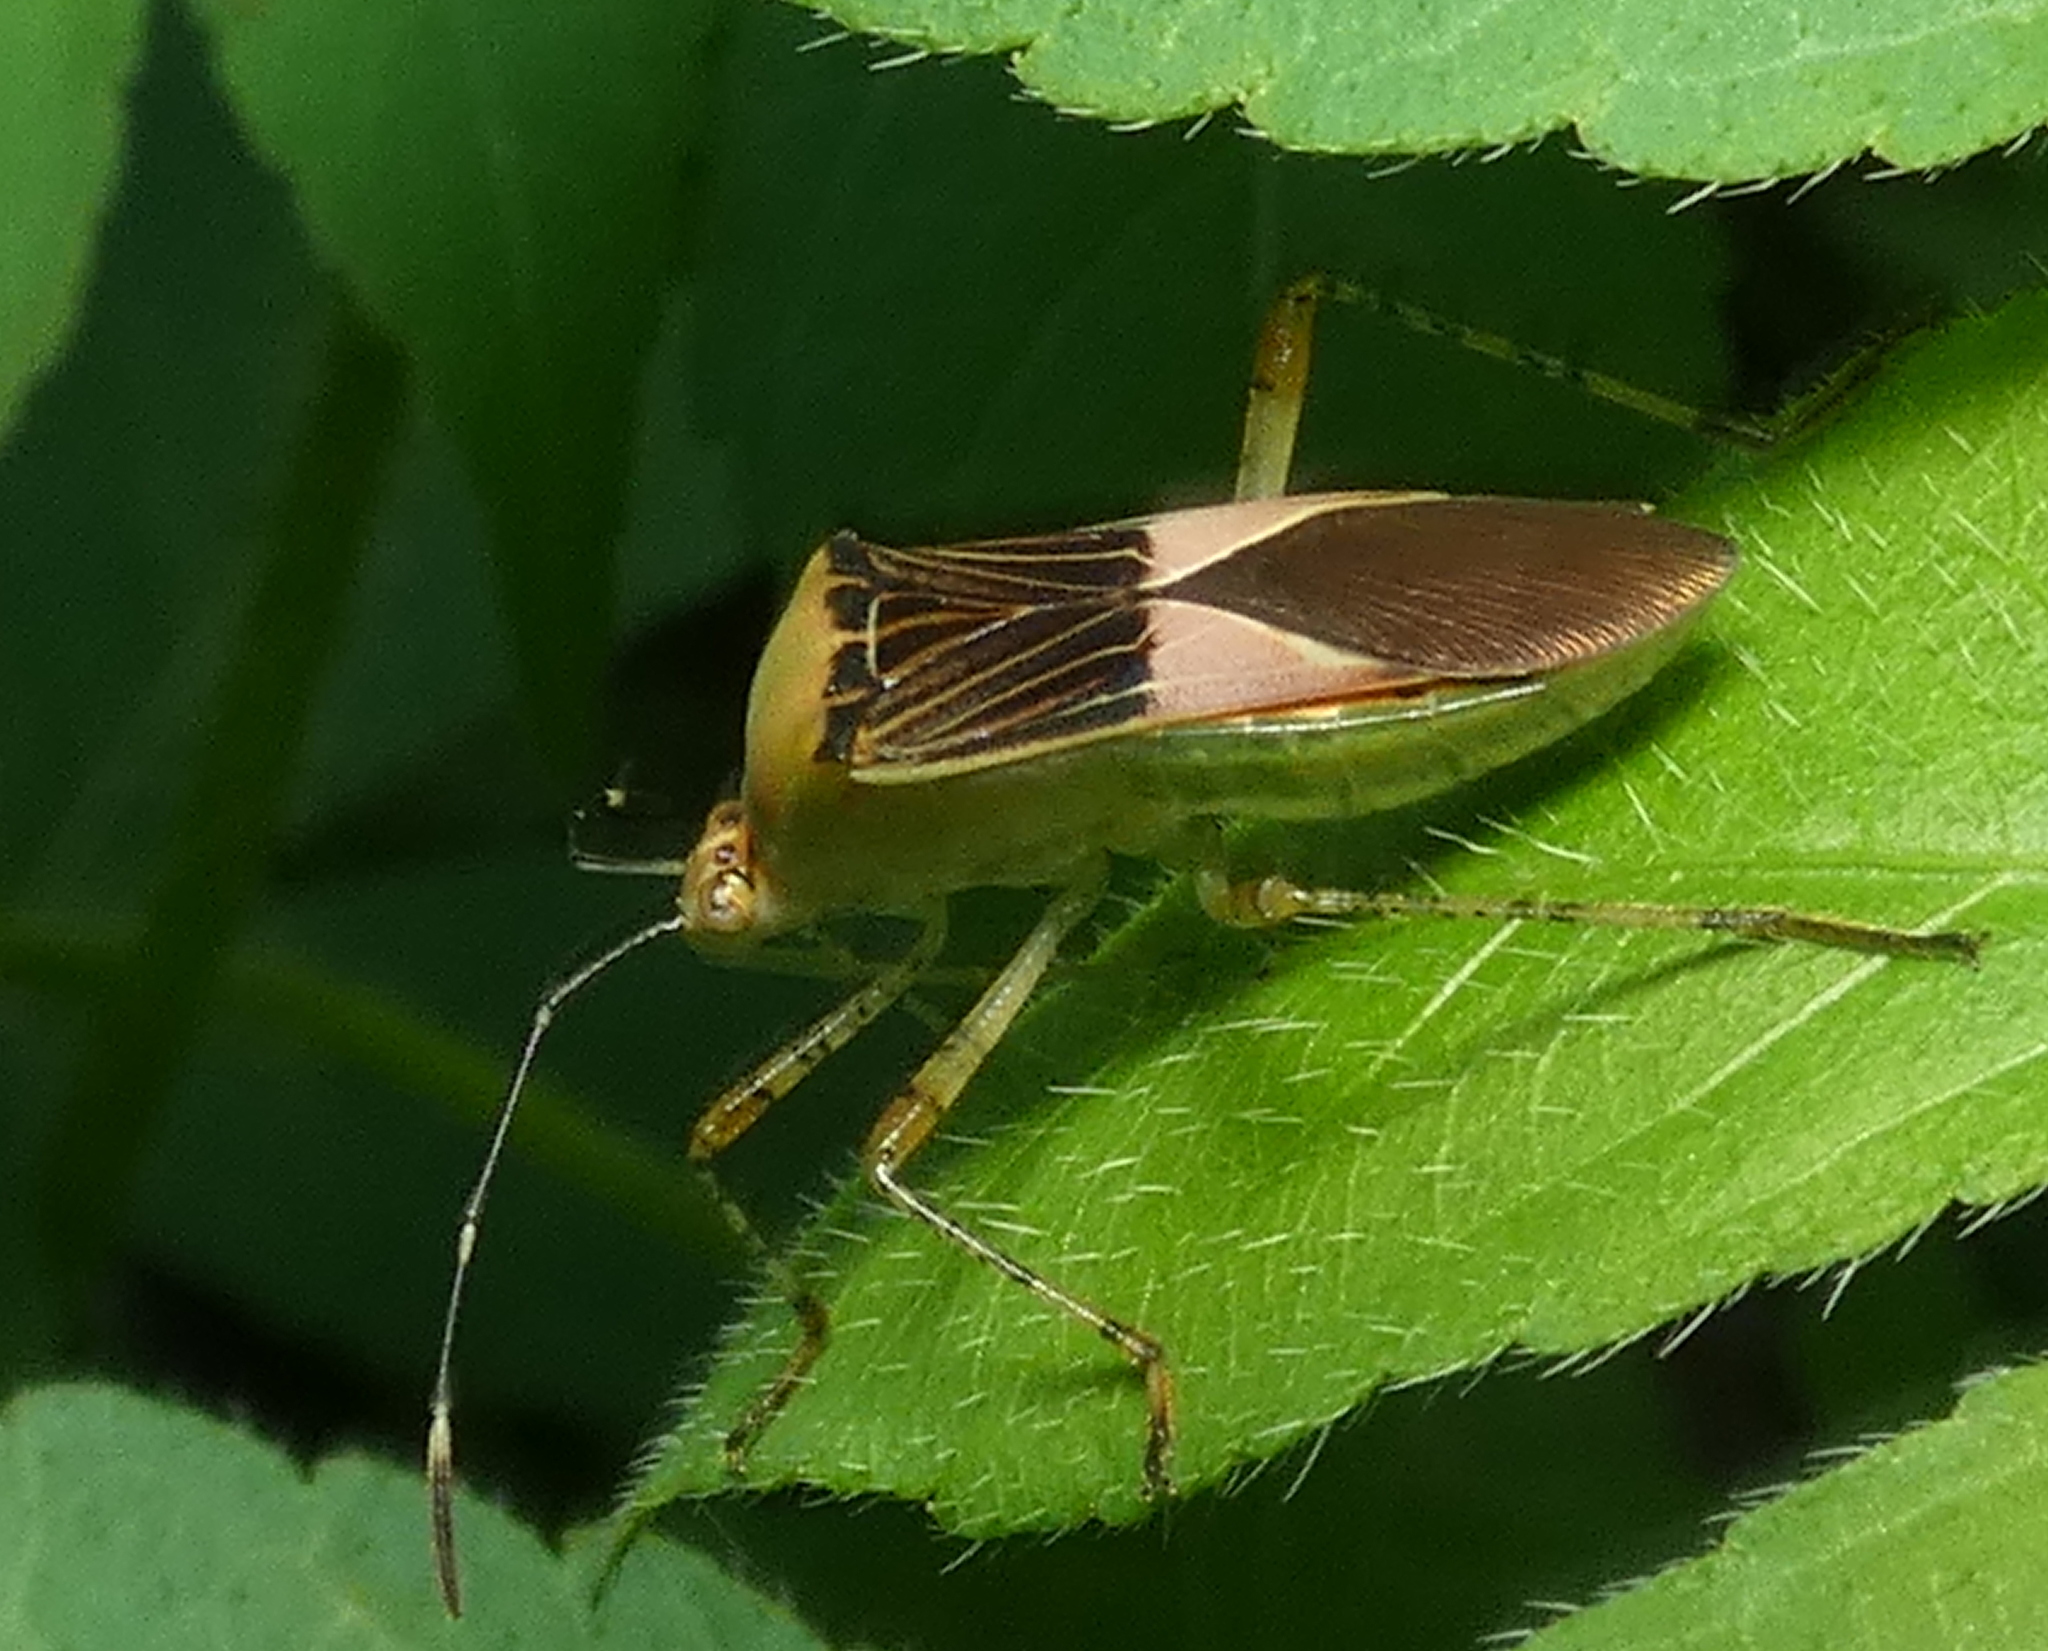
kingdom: Animalia
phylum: Arthropoda
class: Insecta
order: Hemiptera
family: Coreidae
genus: Hypselonotus
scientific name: Hypselonotus fulvus
